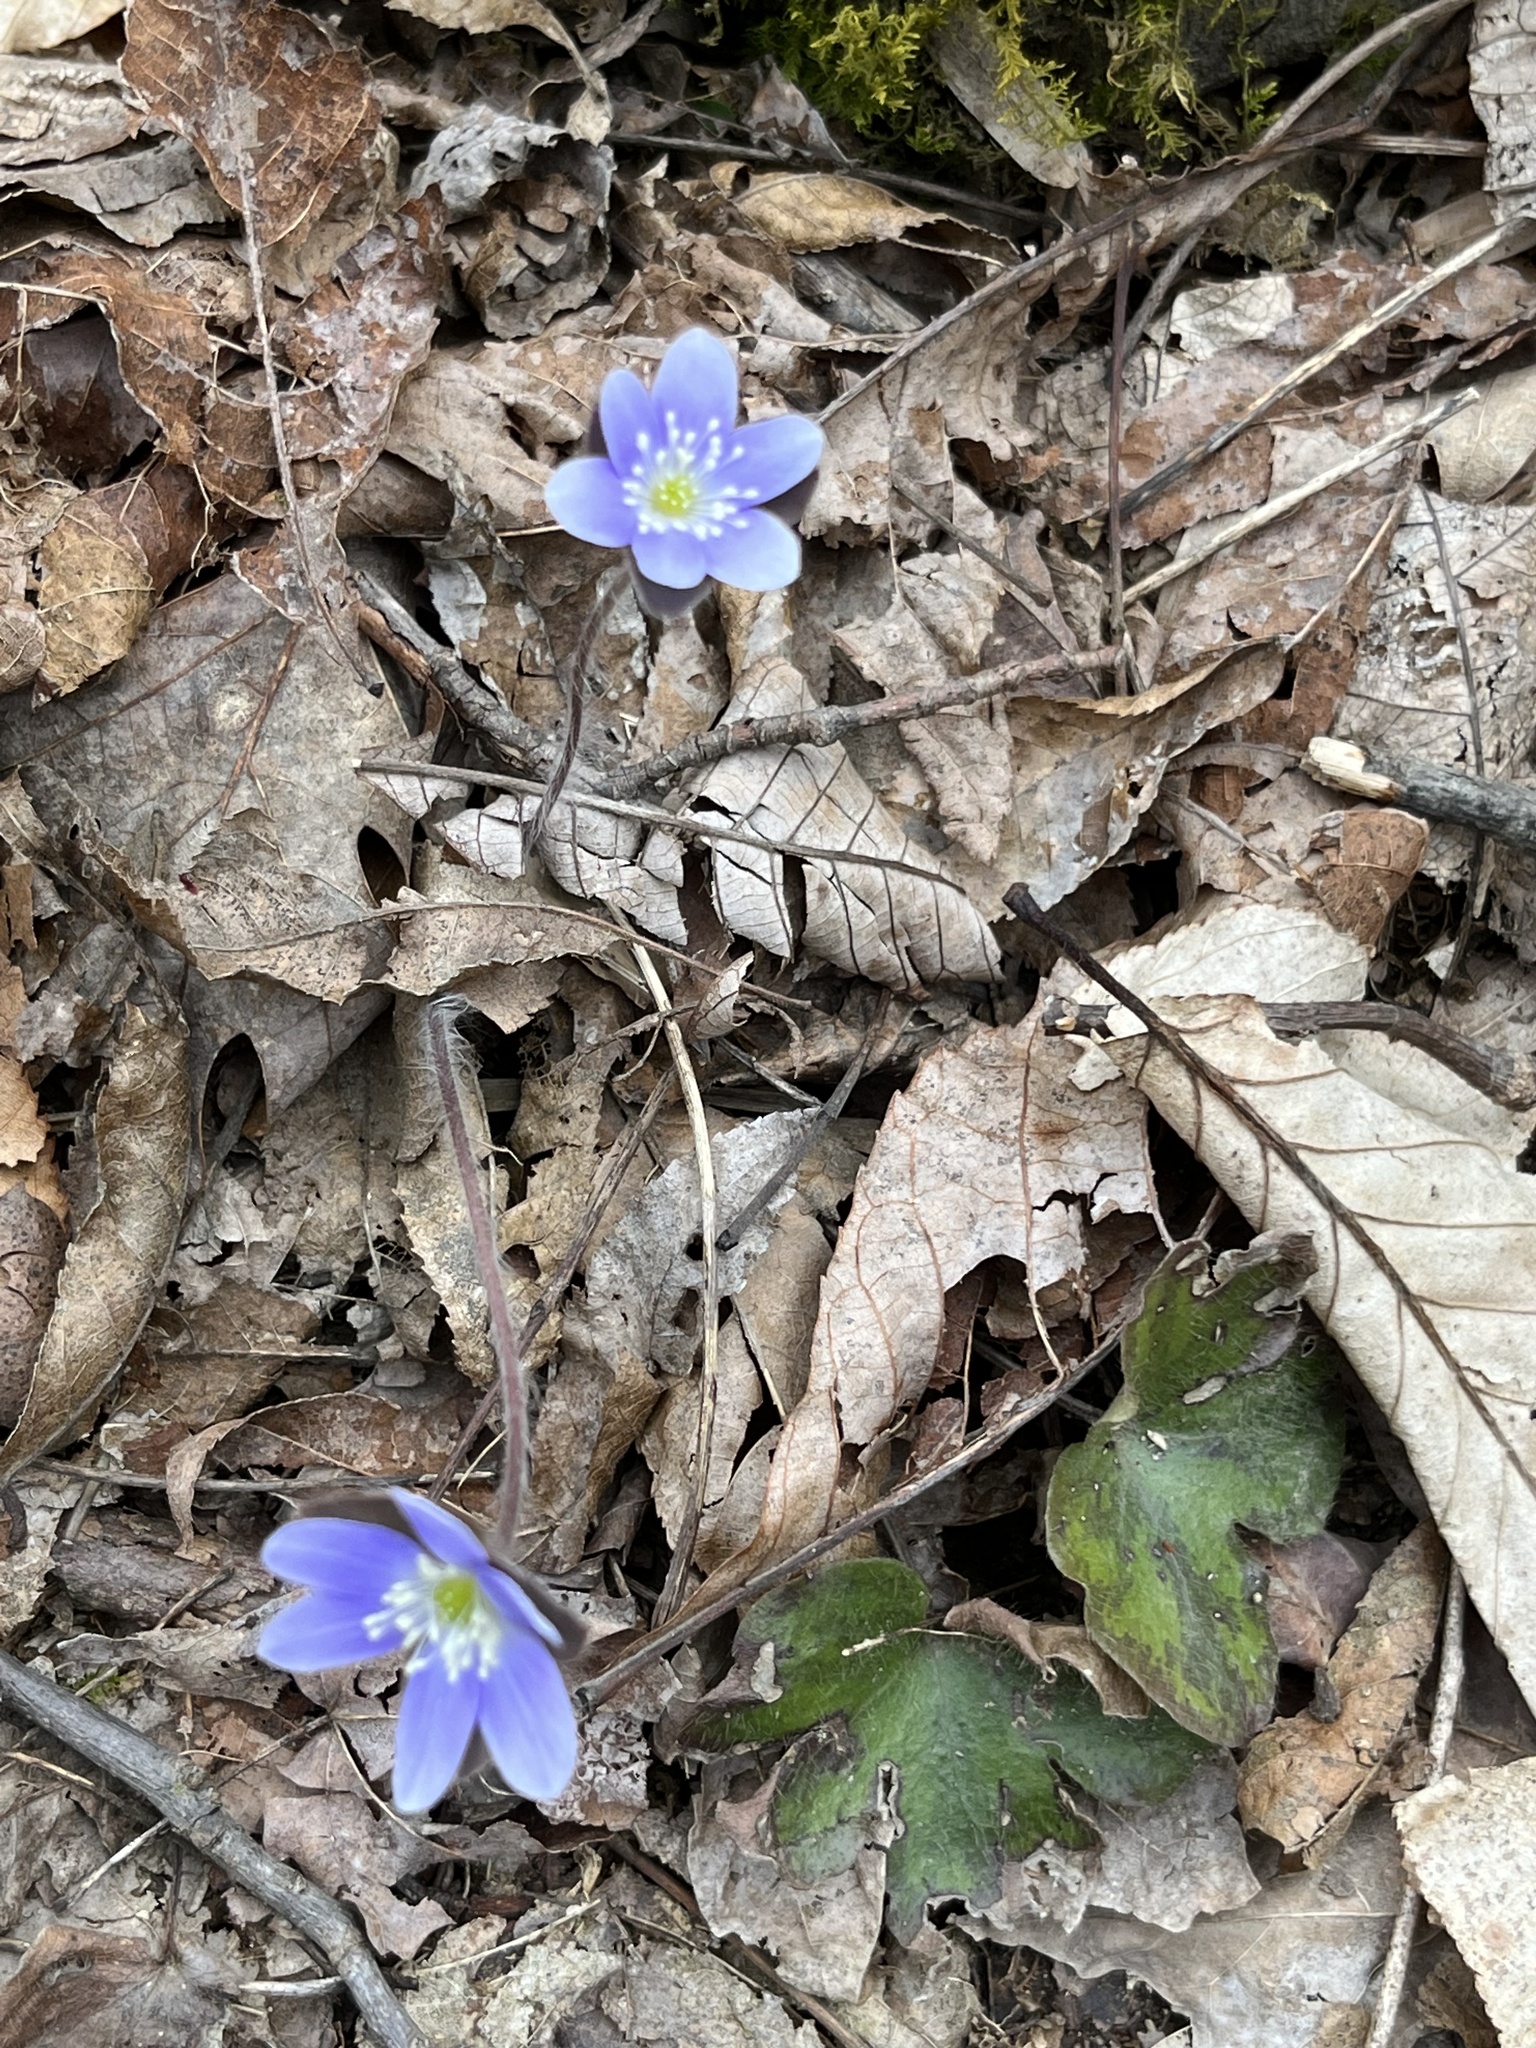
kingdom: Plantae
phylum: Tracheophyta
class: Magnoliopsida
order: Ranunculales
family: Ranunculaceae
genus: Hepatica
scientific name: Hepatica americana
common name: American hepatica
